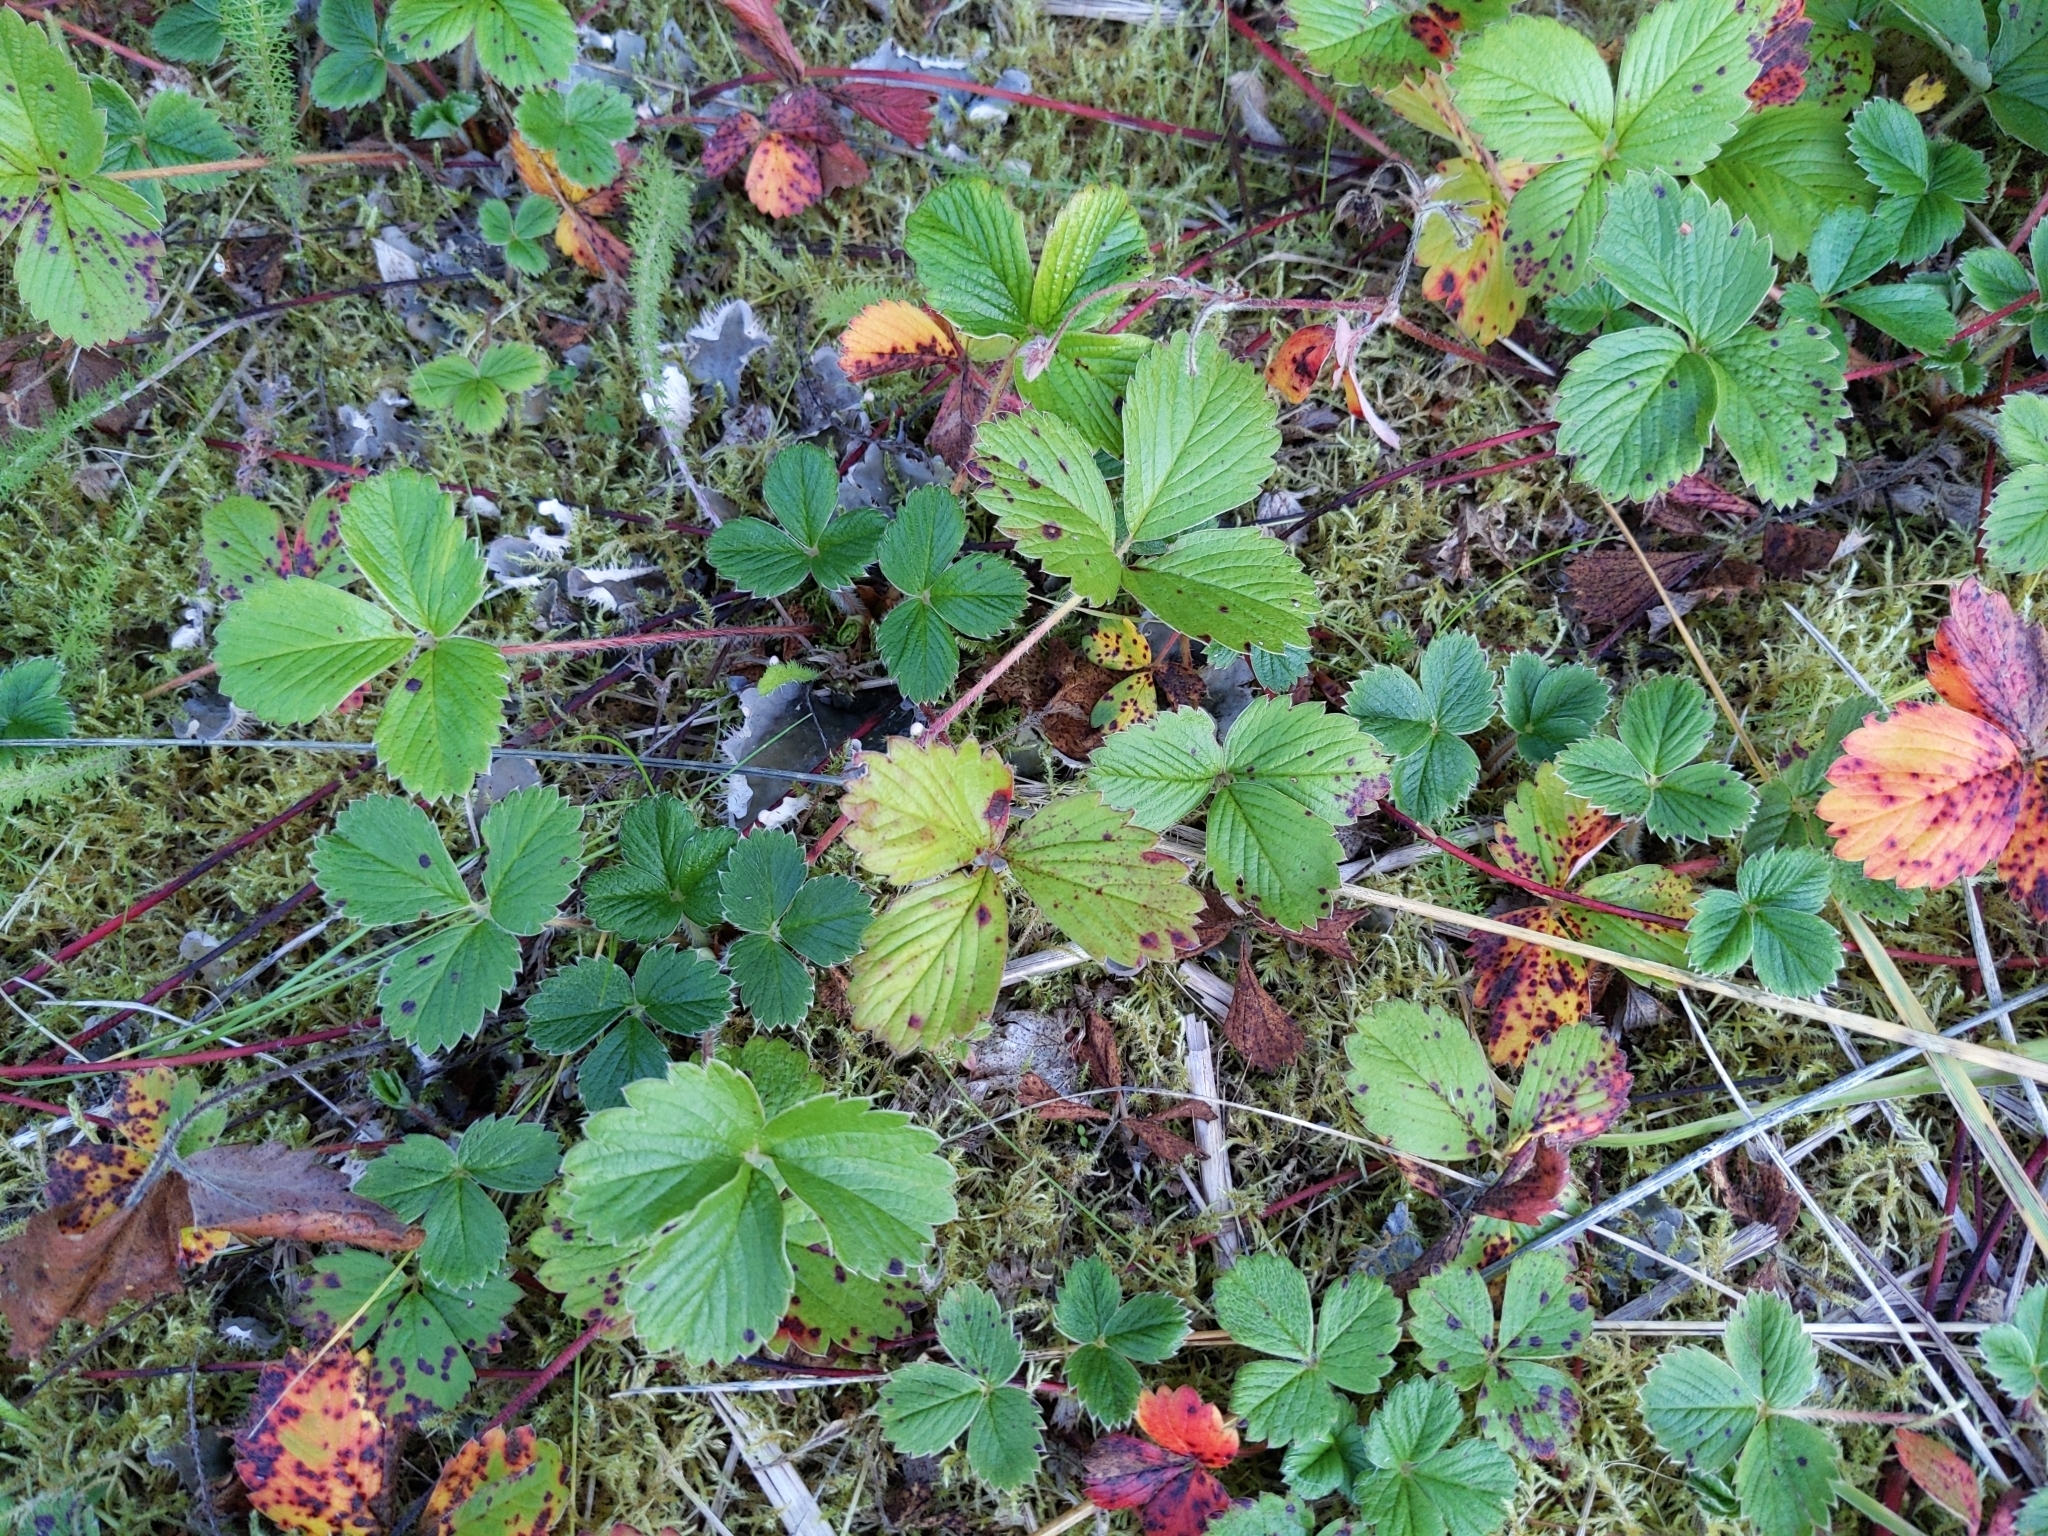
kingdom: Plantae
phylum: Tracheophyta
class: Magnoliopsida
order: Rosales
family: Rosaceae
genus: Fragaria
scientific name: Fragaria chiloensis
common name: Beach strawberry
